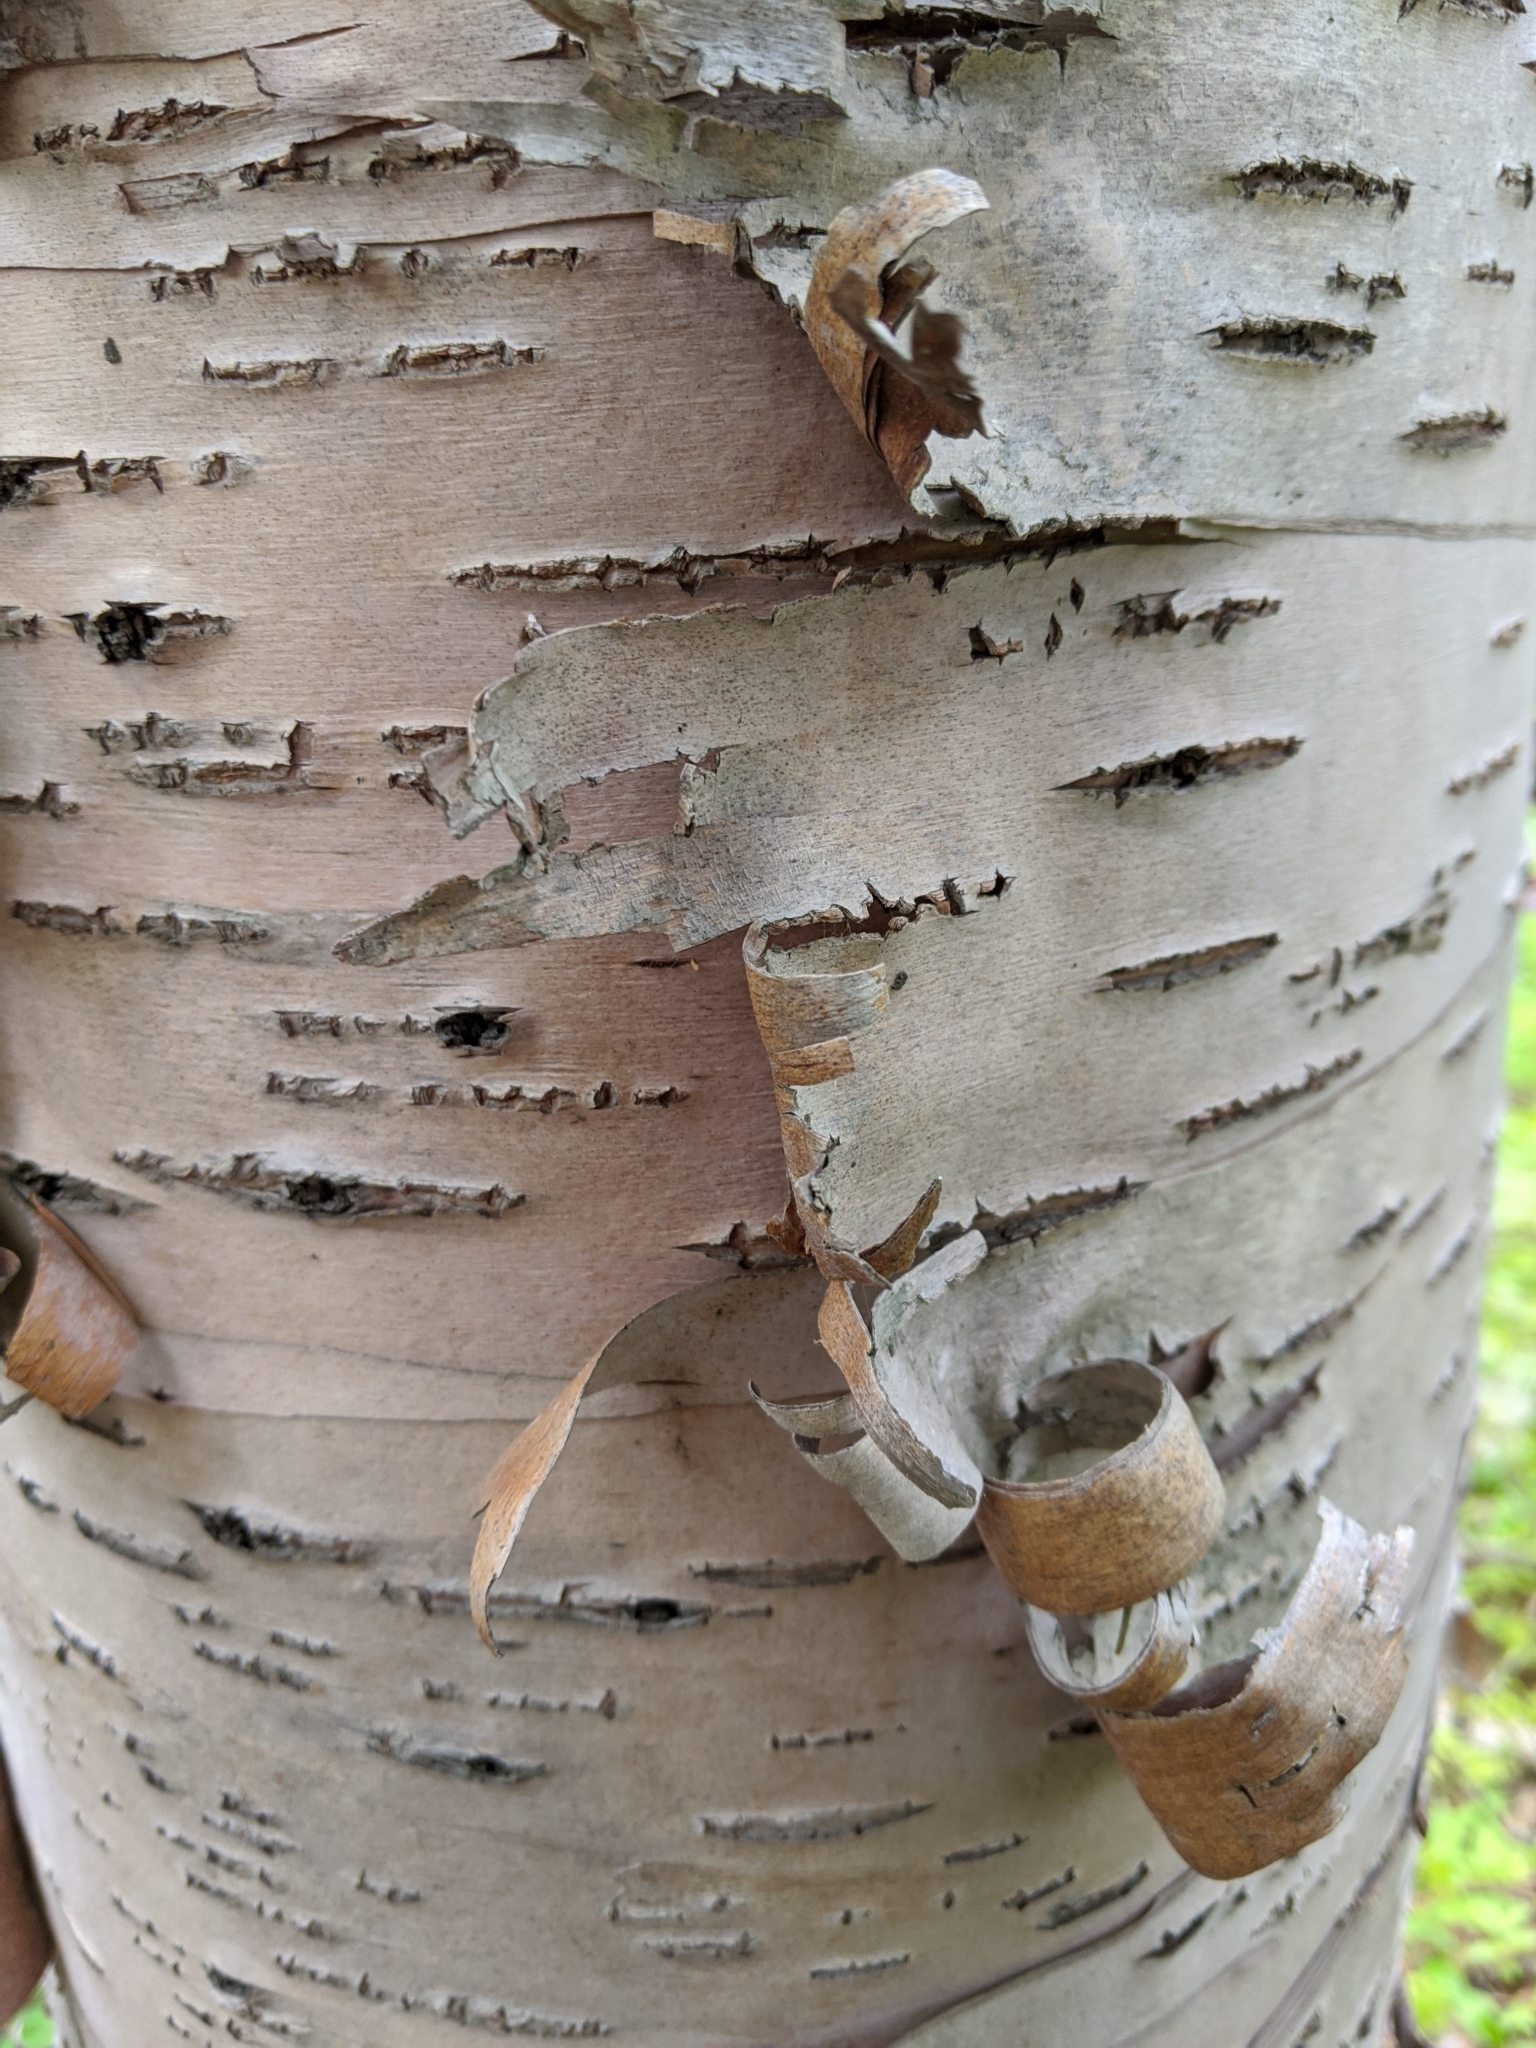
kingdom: Plantae
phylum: Tracheophyta
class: Magnoliopsida
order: Fagales
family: Betulaceae
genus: Betula
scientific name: Betula papyrifera
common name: Paper birch
